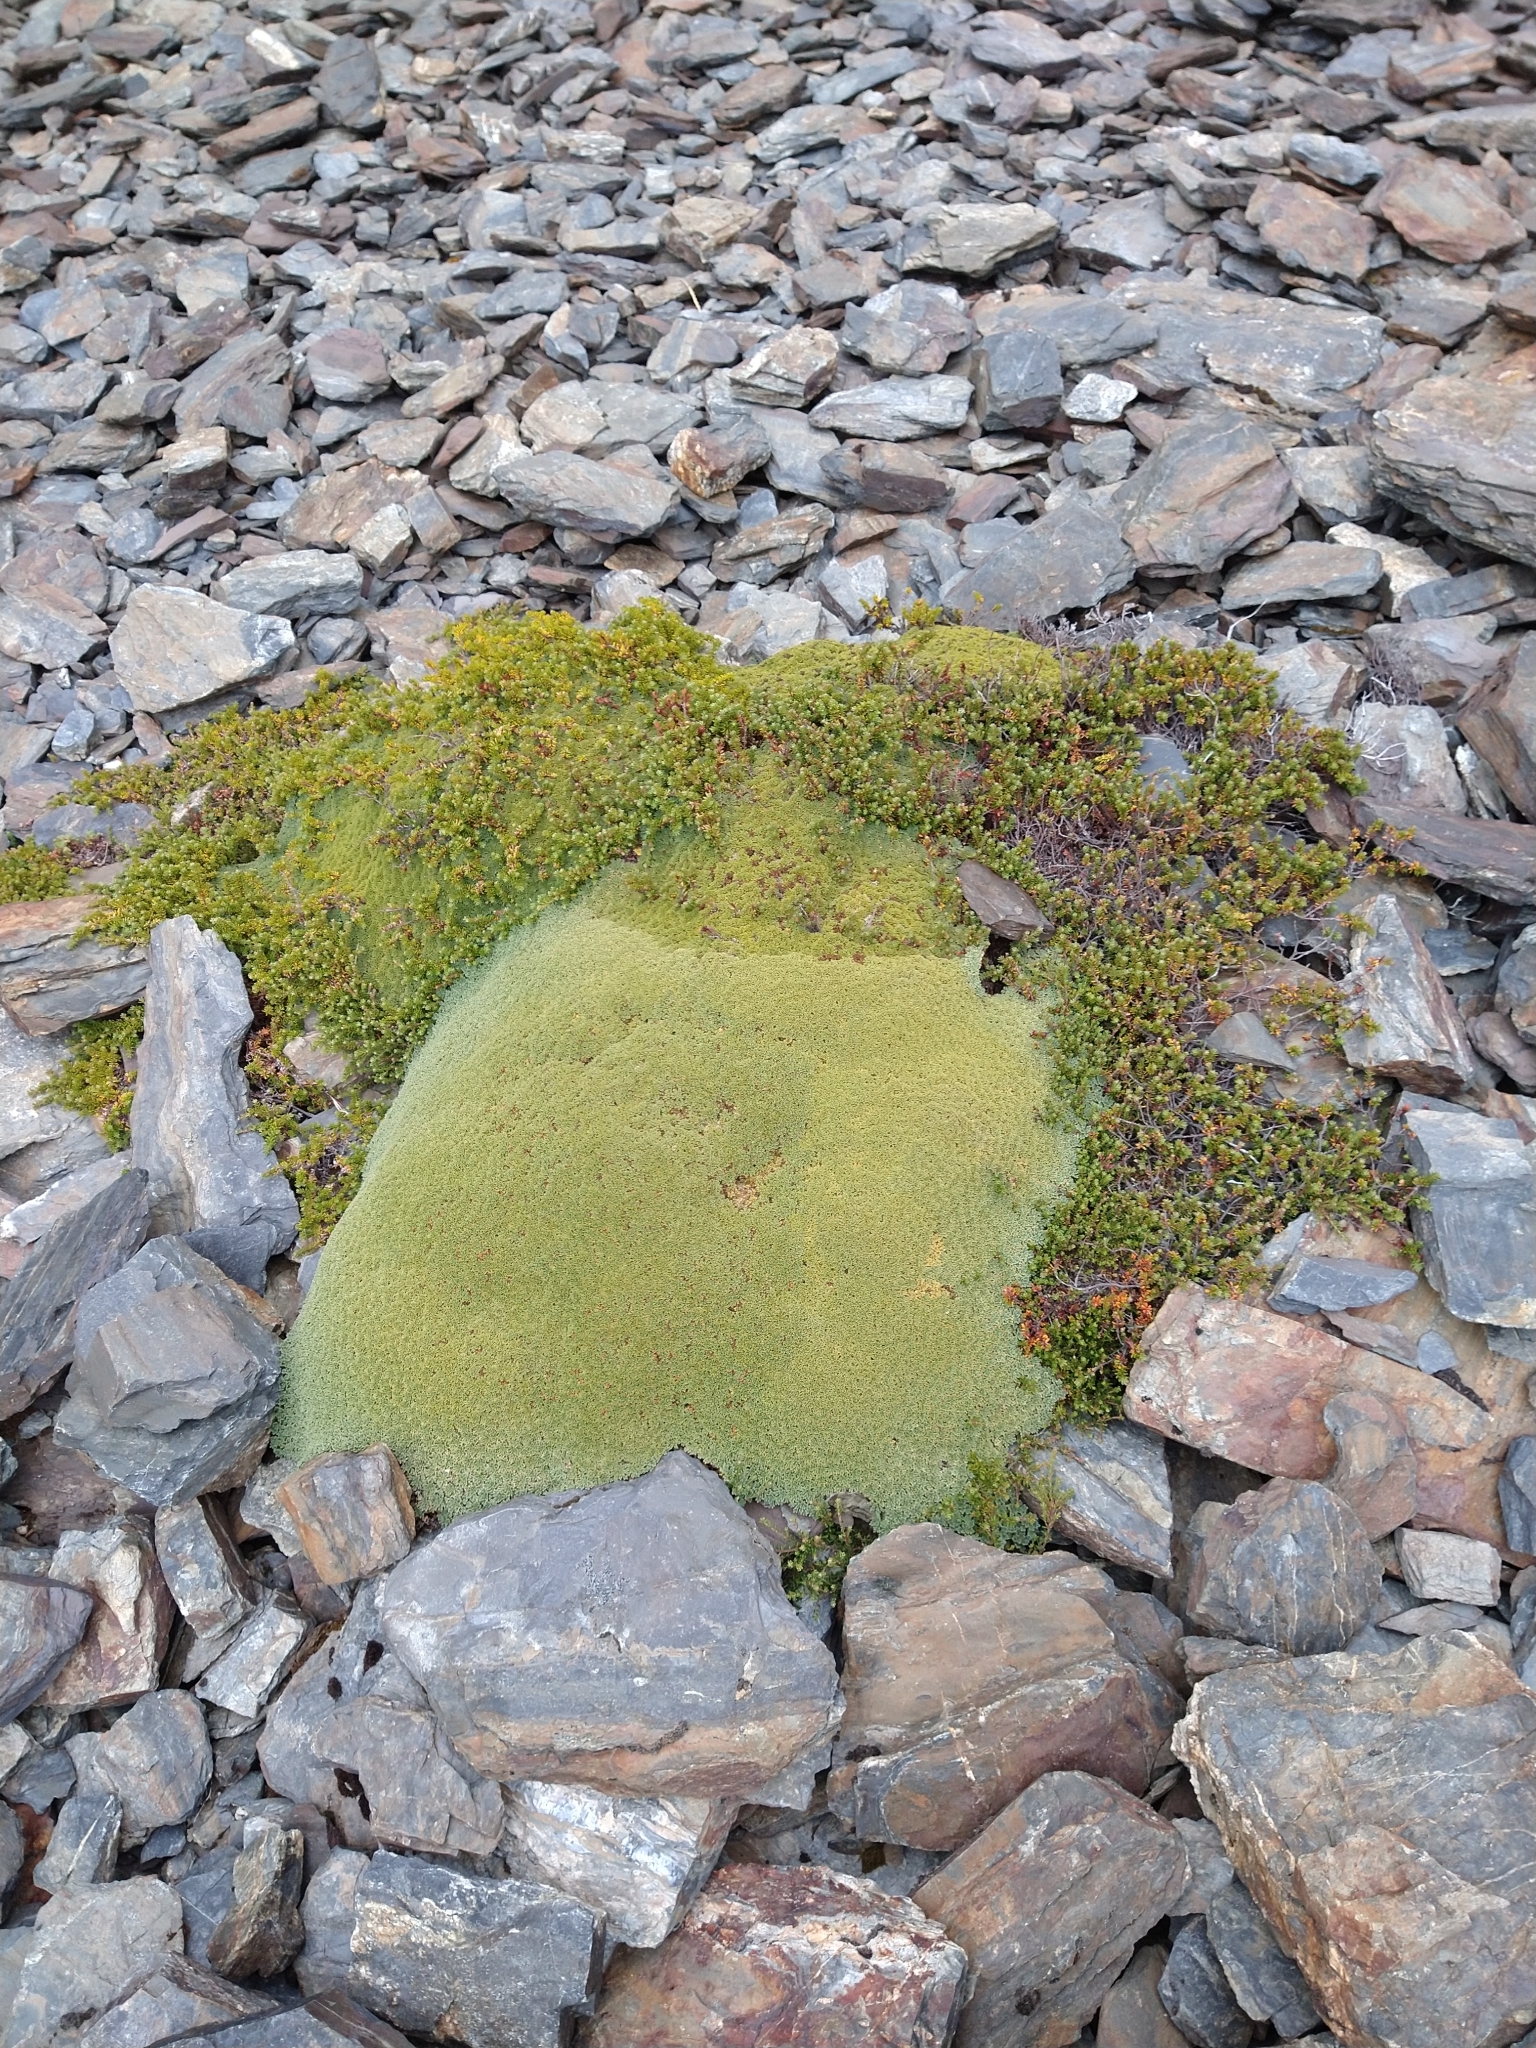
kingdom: Plantae
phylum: Tracheophyta
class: Magnoliopsida
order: Apiales
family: Apiaceae
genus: Bolax
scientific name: Bolax gummifera
